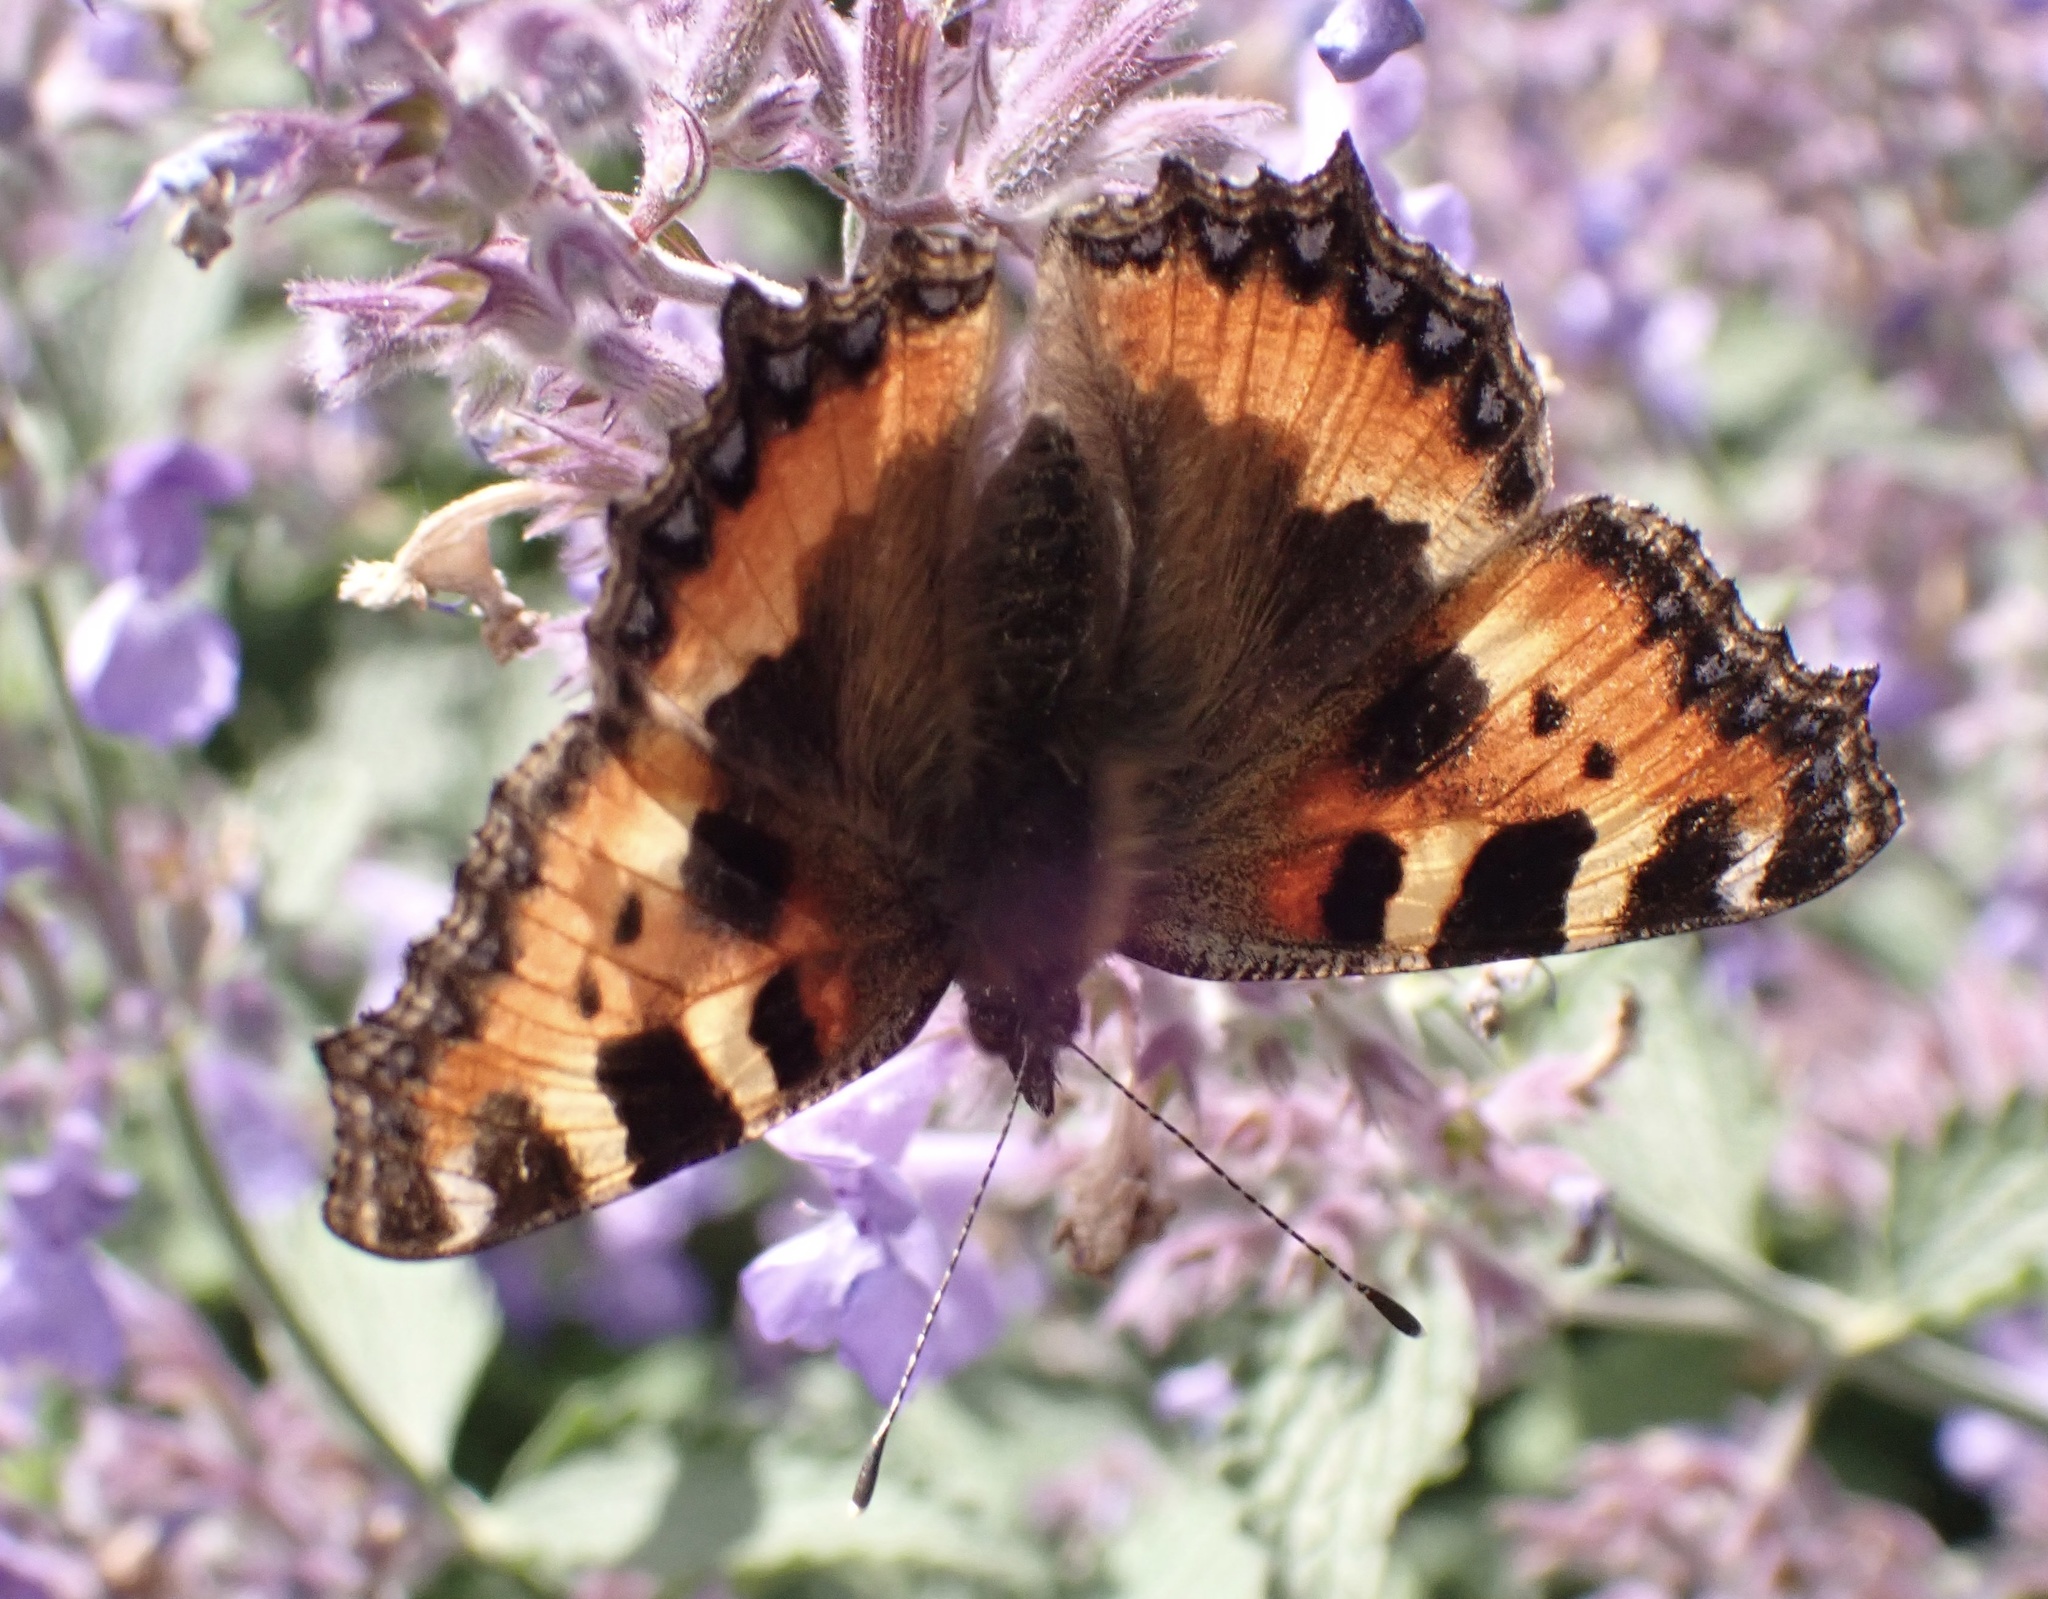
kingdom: Animalia
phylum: Arthropoda
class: Insecta
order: Lepidoptera
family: Nymphalidae
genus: Aglais
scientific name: Aglais urticae
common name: Small tortoiseshell
